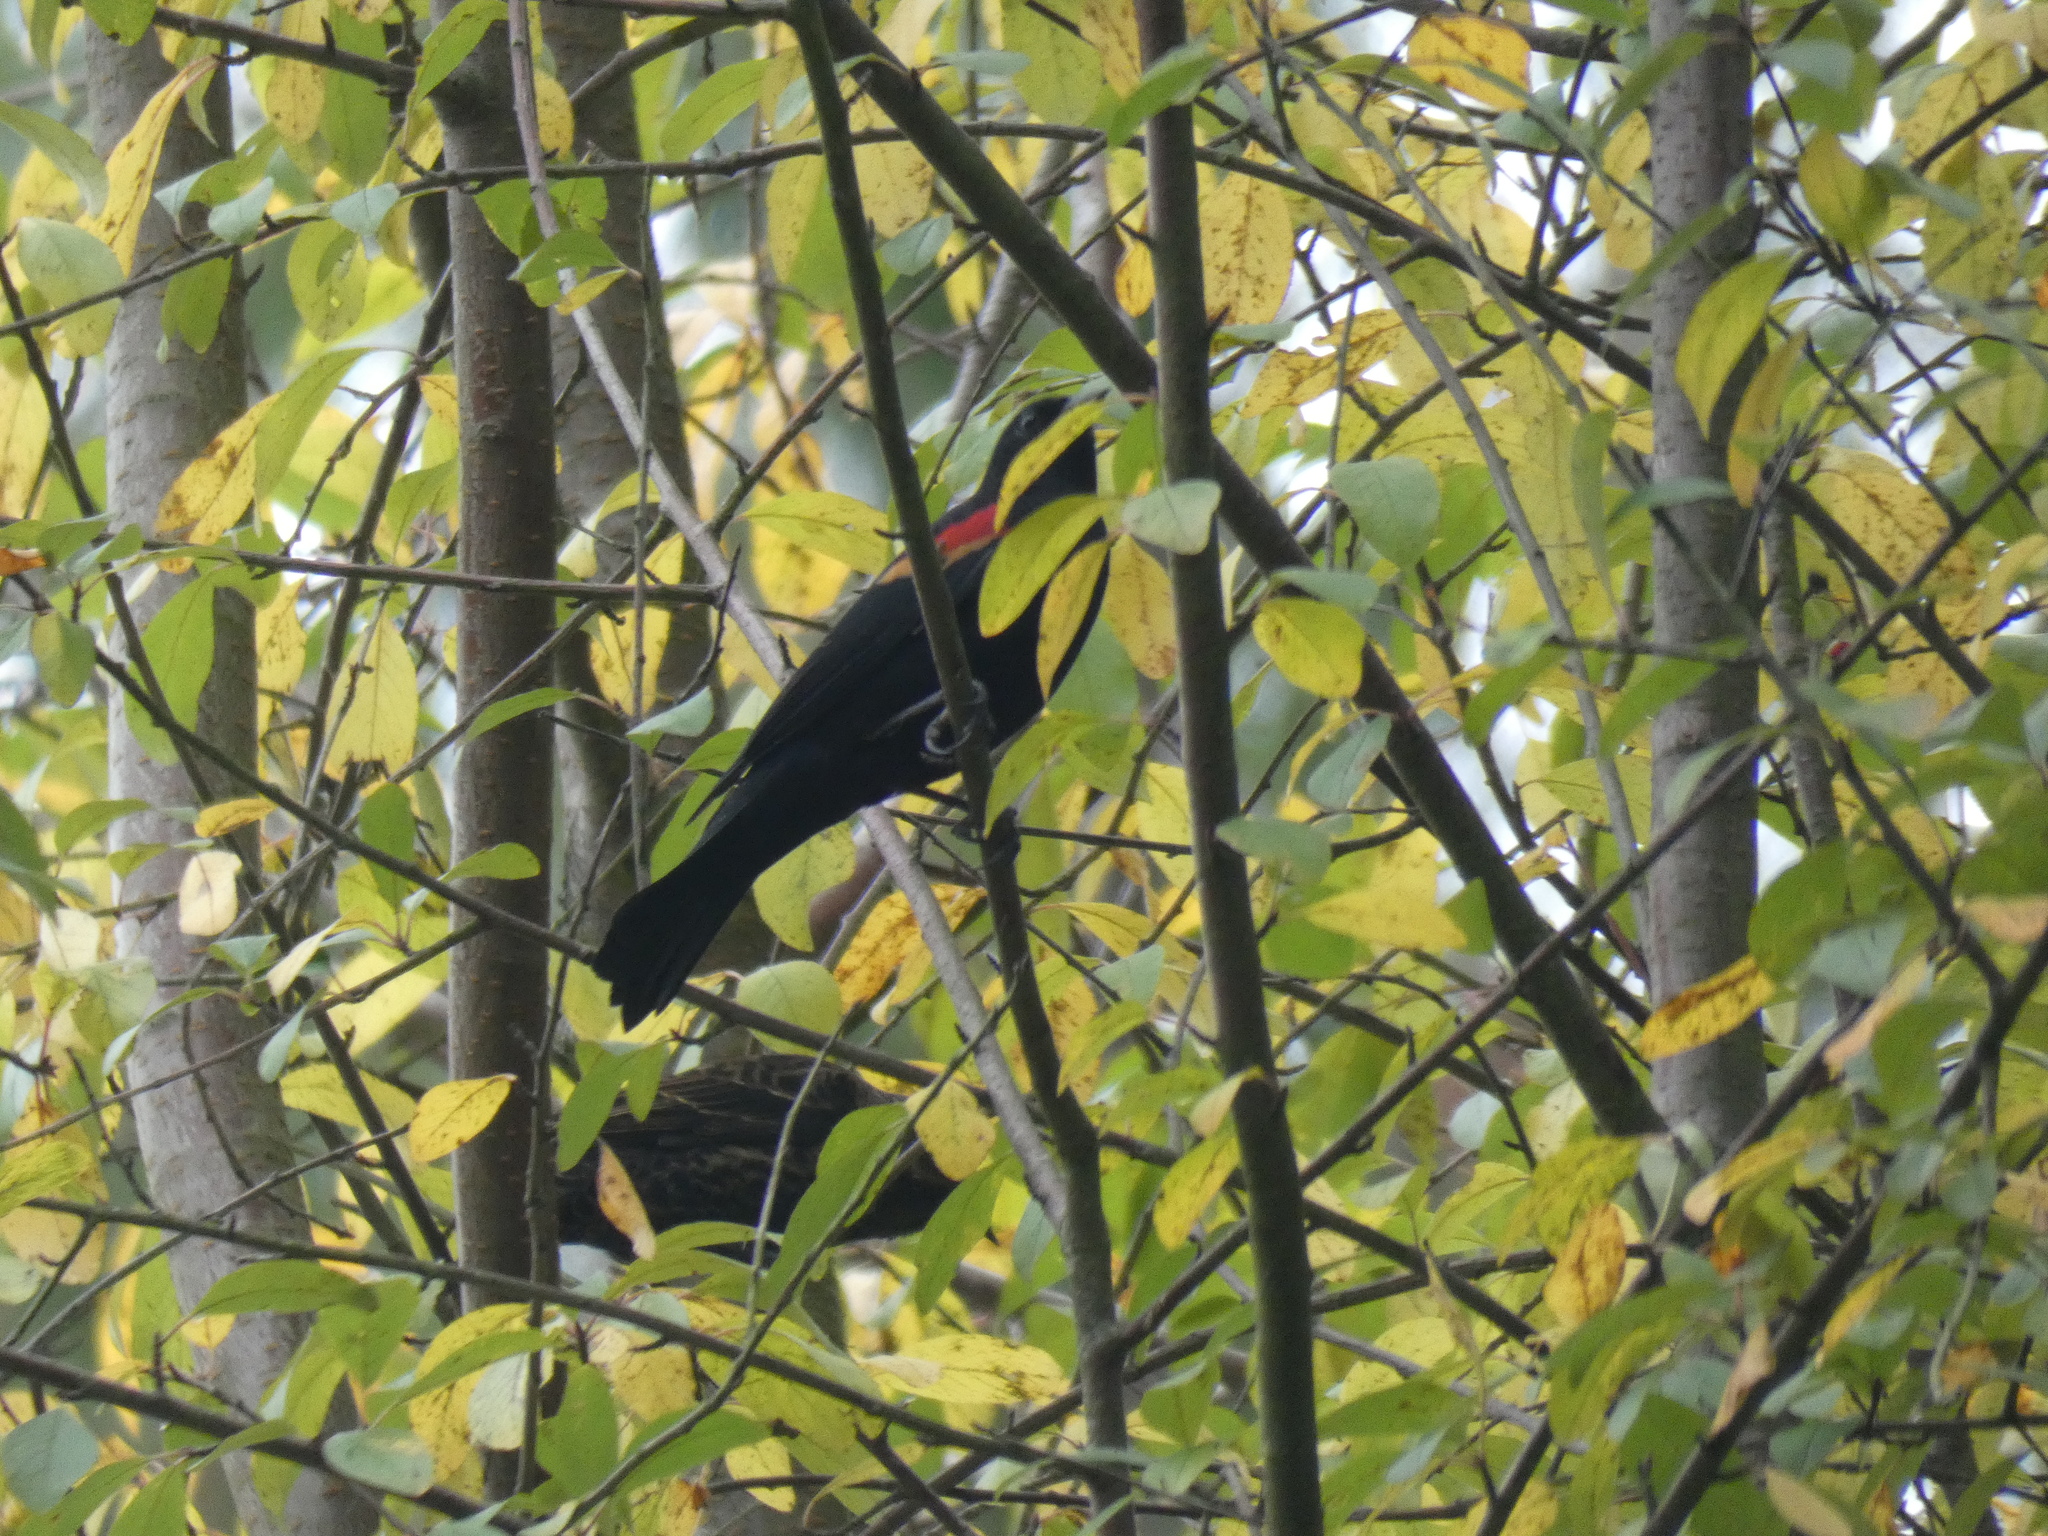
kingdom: Animalia
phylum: Chordata
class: Aves
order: Passeriformes
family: Icteridae
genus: Agelaius
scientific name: Agelaius phoeniceus
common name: Red-winged blackbird
